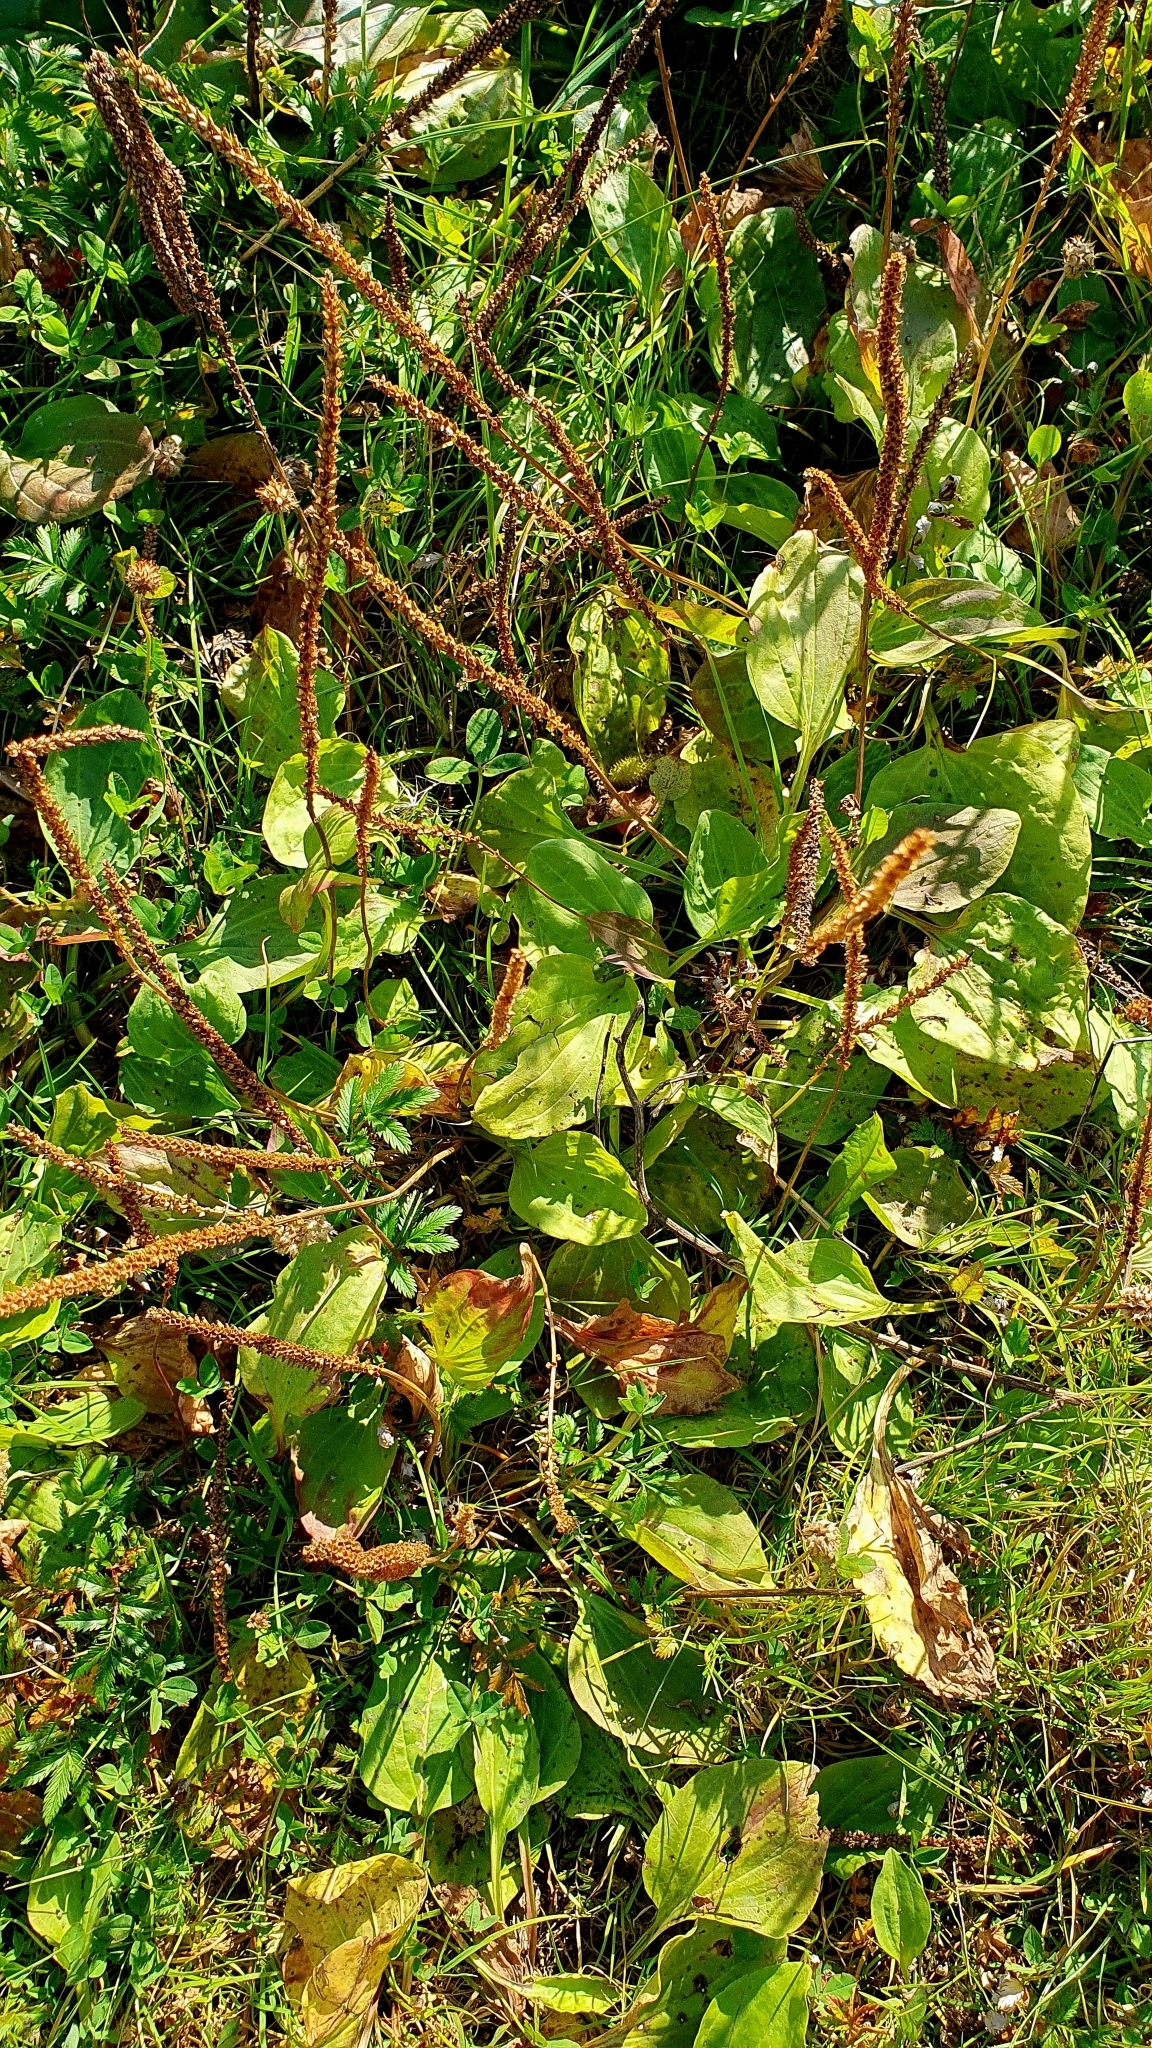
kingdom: Plantae
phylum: Tracheophyta
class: Magnoliopsida
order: Lamiales
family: Plantaginaceae
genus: Plantago
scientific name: Plantago major
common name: Common plantain
